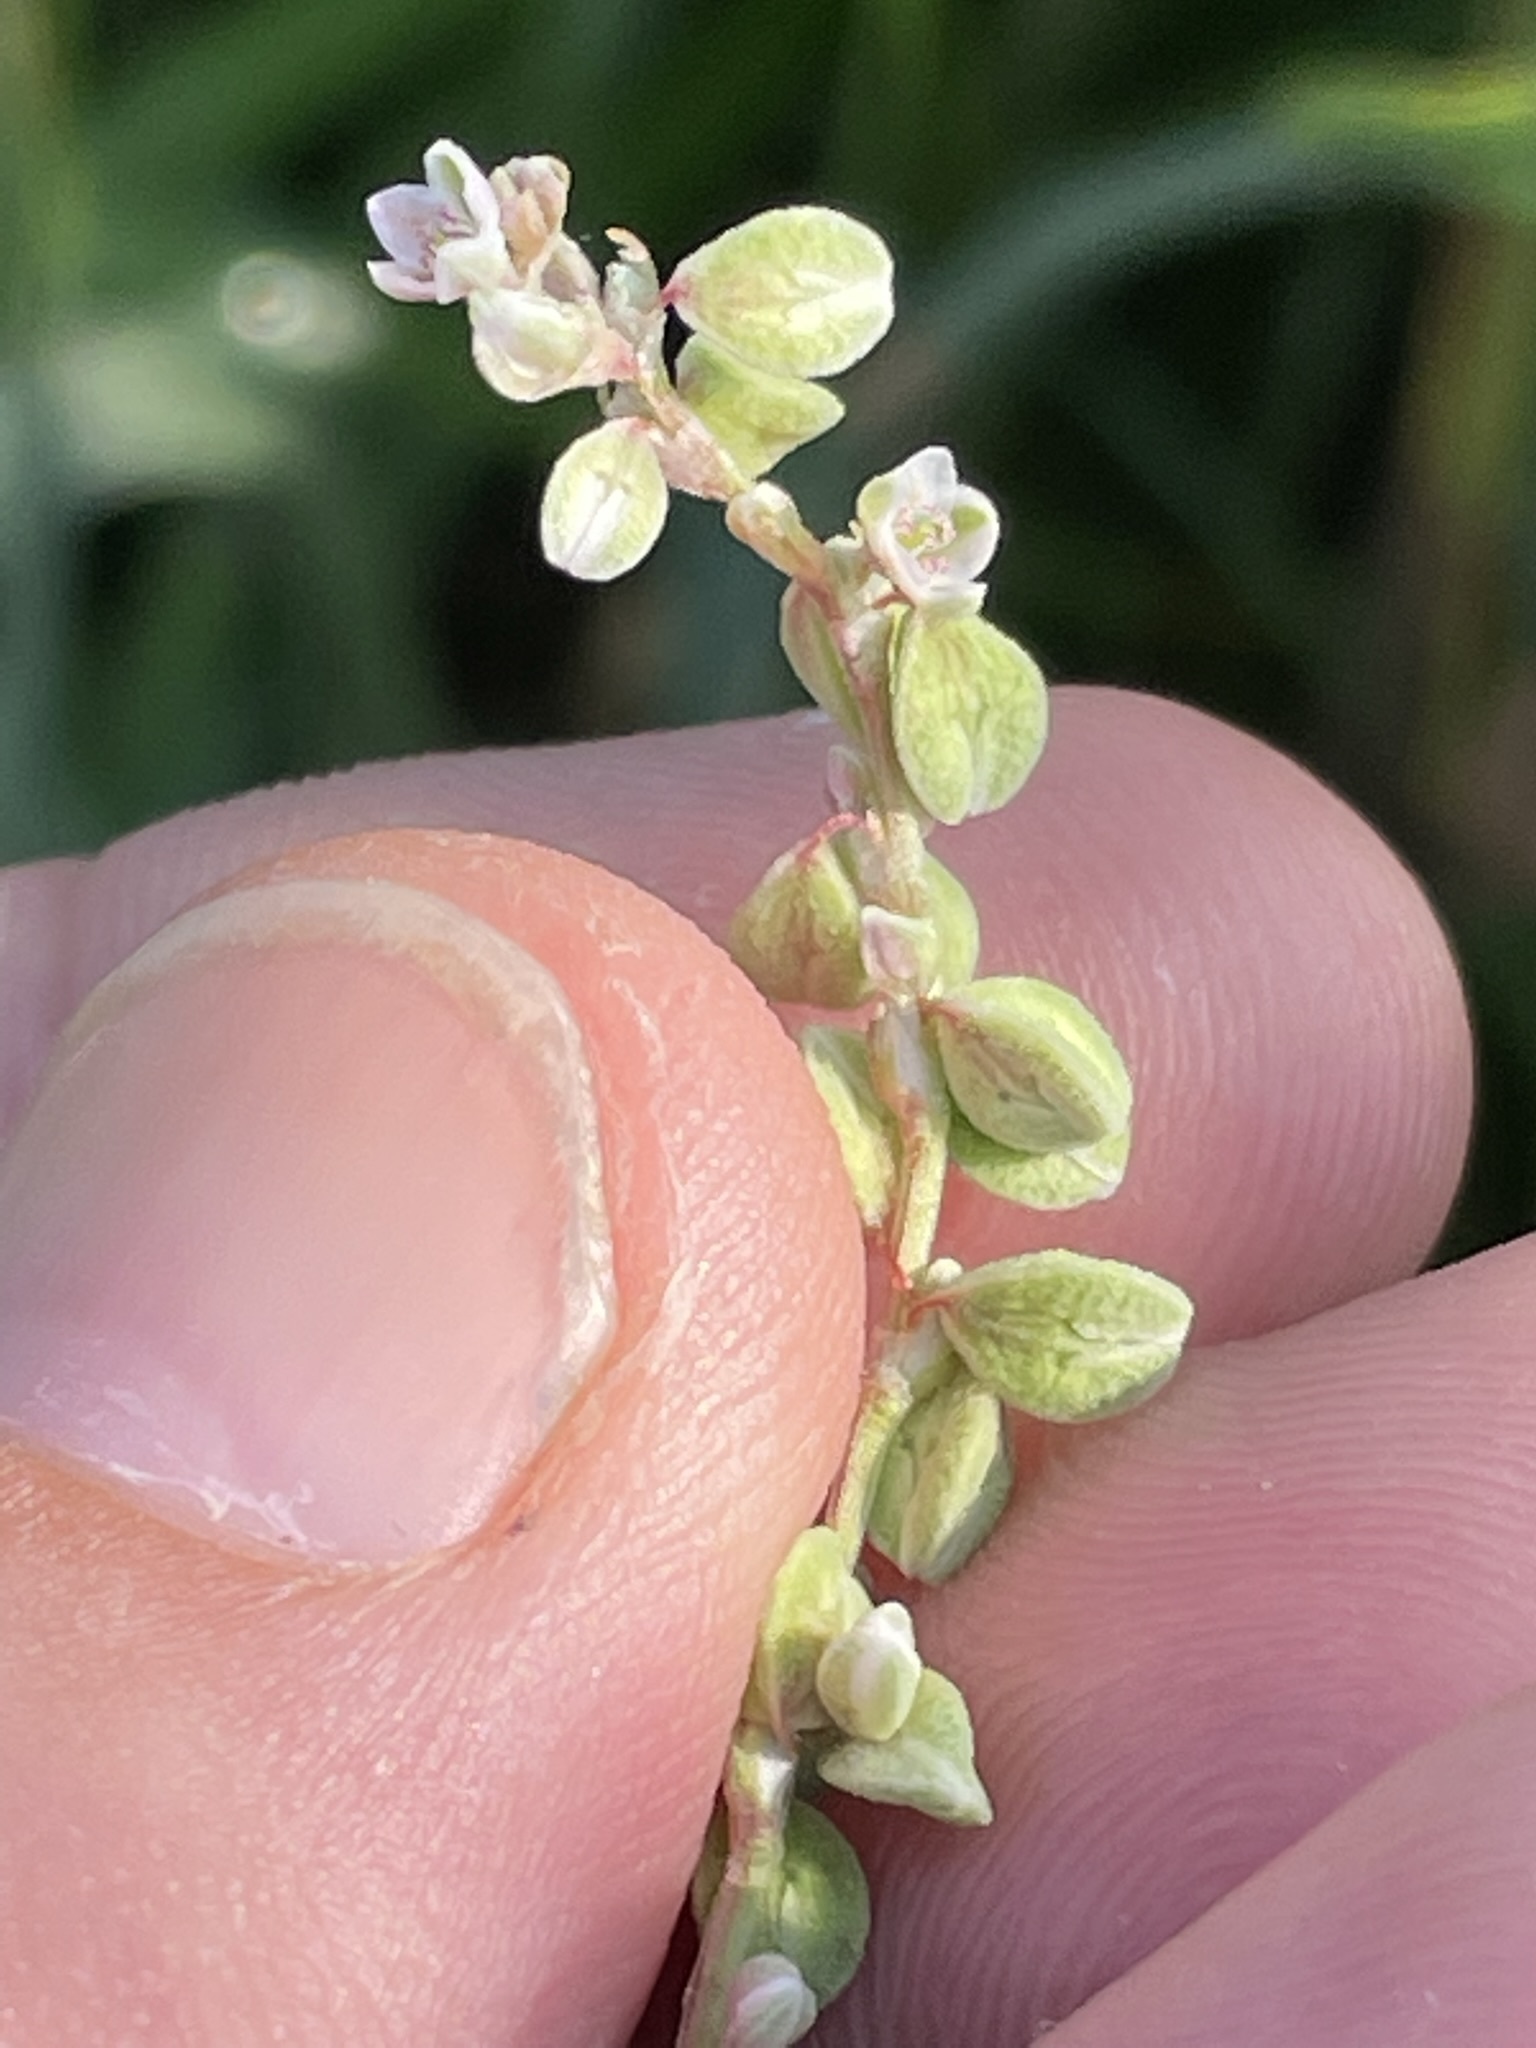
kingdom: Plantae
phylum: Tracheophyta
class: Magnoliopsida
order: Caryophyllales
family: Polygonaceae
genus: Fallopia
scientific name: Fallopia convolvulus
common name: Black bindweed
